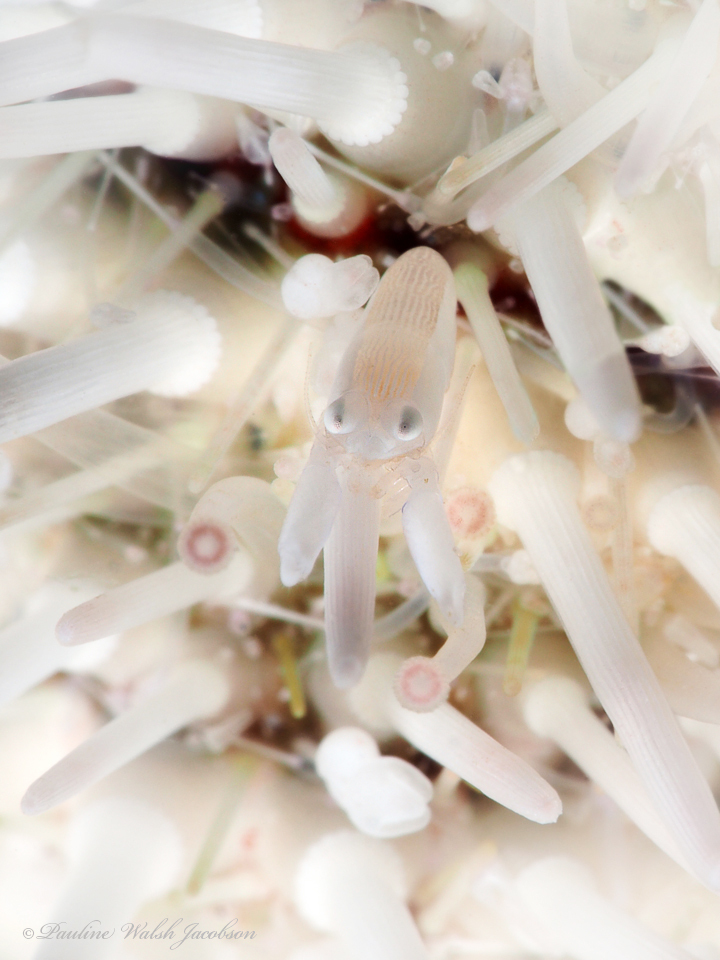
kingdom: Animalia
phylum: Arthropoda
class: Malacostraca
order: Decapoda
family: Palaemonidae
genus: Gnathophylloides
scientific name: Gnathophylloides mineri
